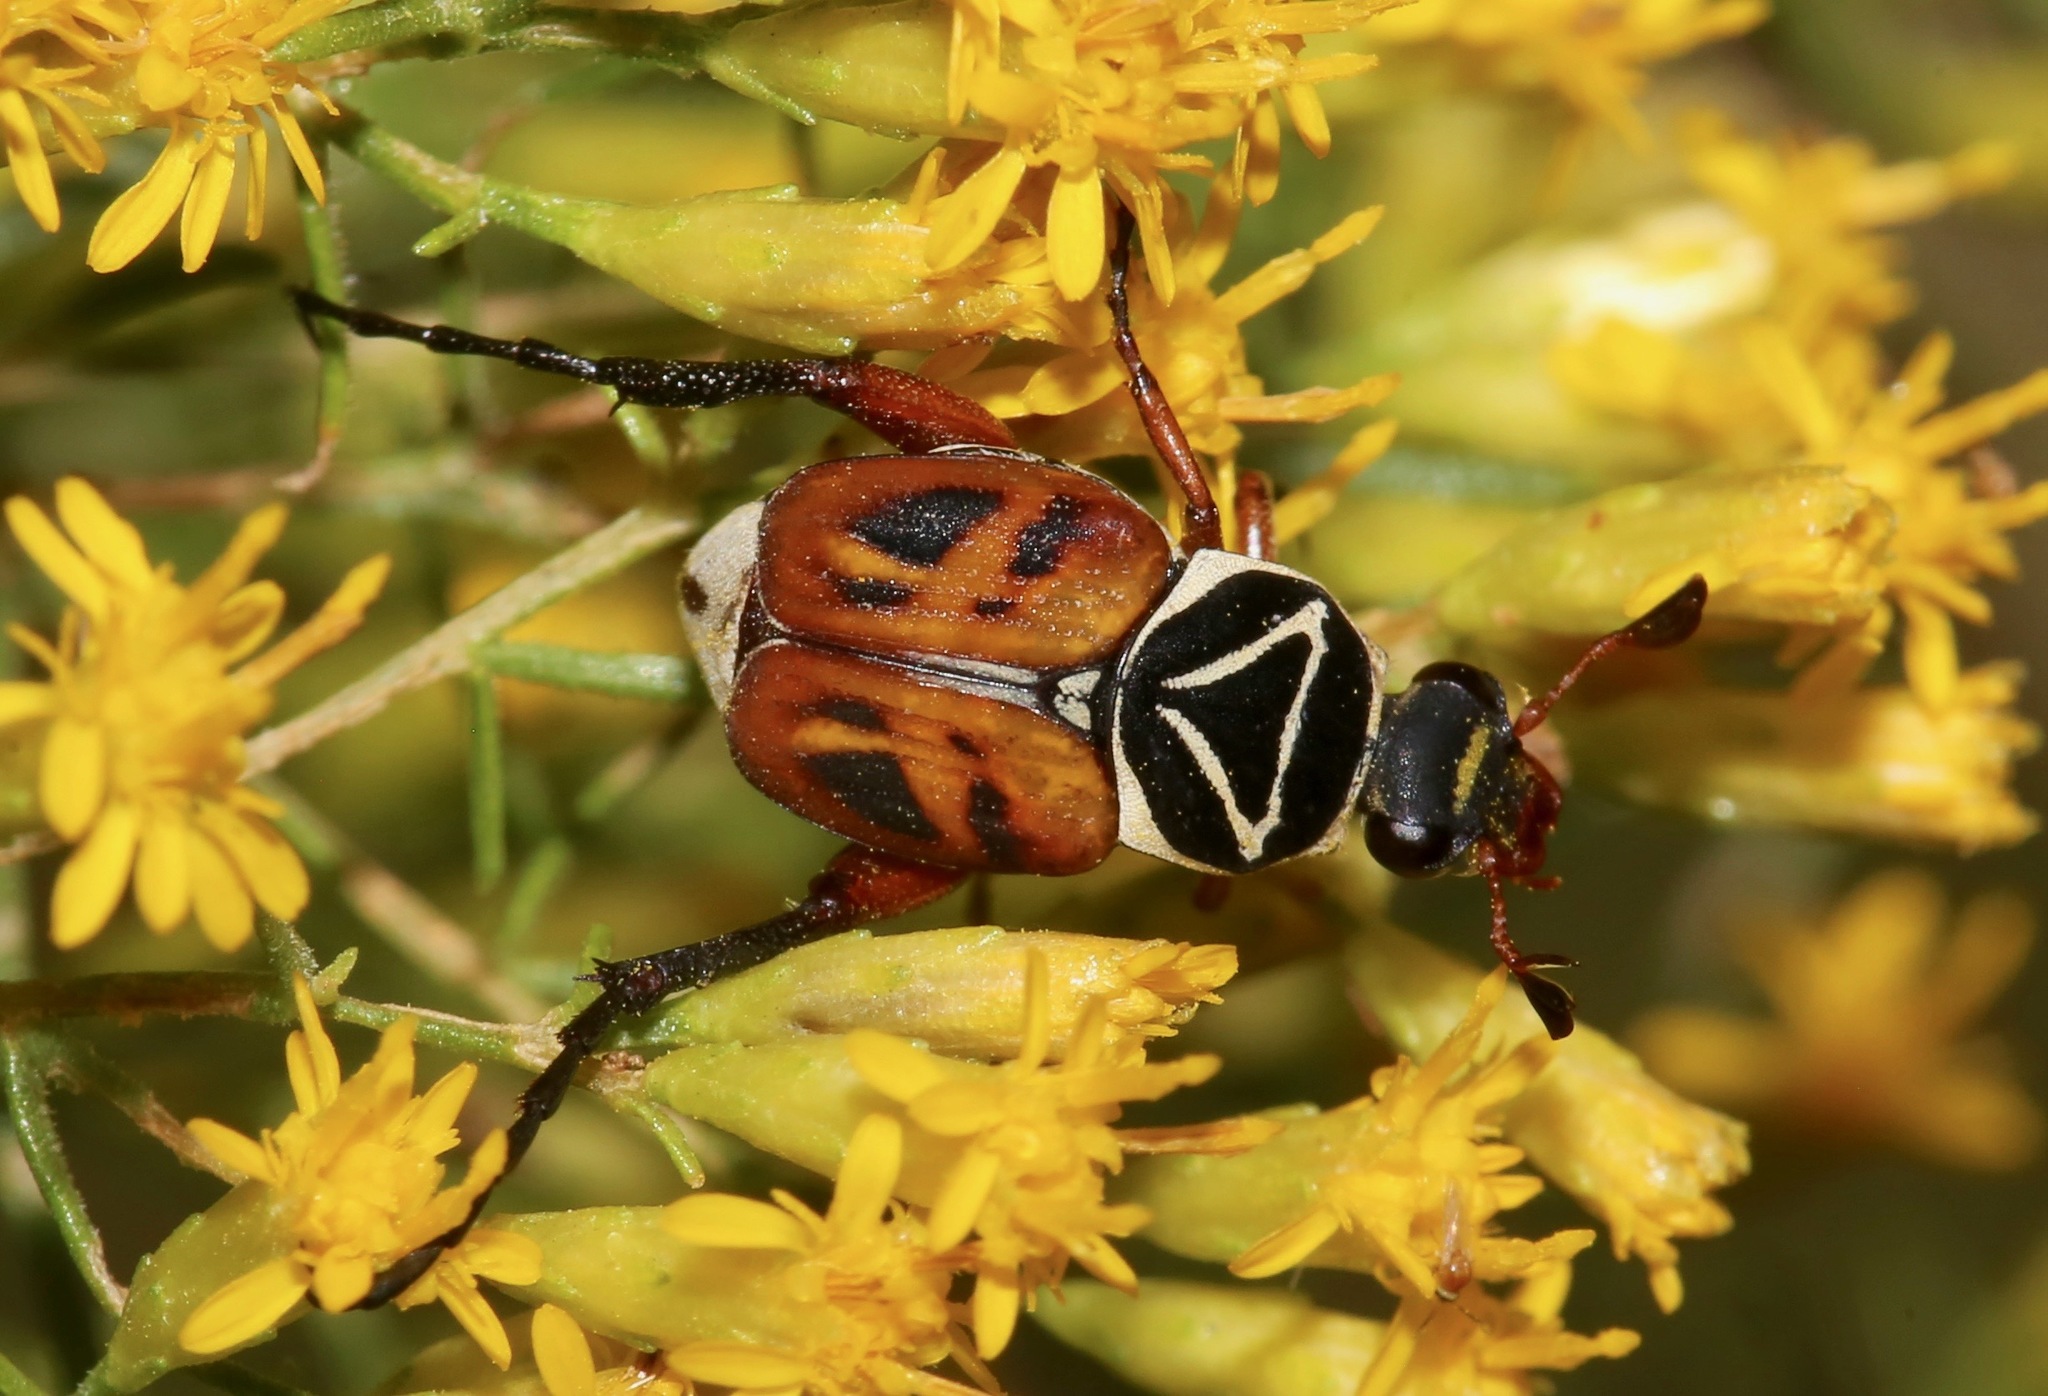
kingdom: Animalia
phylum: Arthropoda
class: Insecta
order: Coleoptera
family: Scarabaeidae
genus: Trigonopeltastes
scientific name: Trigonopeltastes delta
